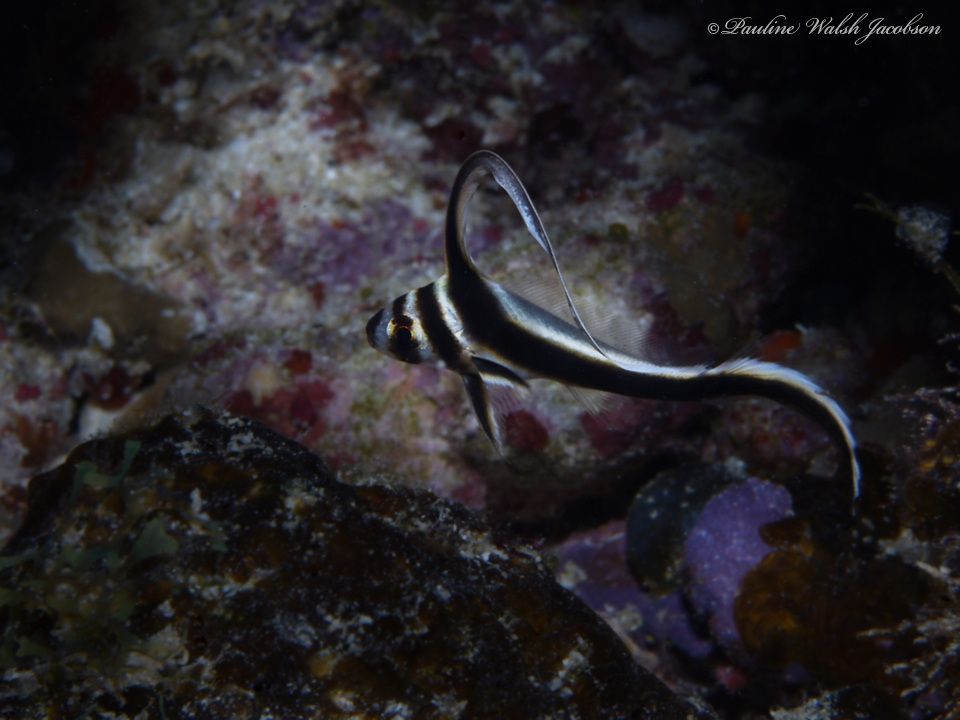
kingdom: Animalia
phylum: Chordata
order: Perciformes
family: Sciaenidae
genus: Equetus
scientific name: Equetus punctatus
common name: Spotted drum
